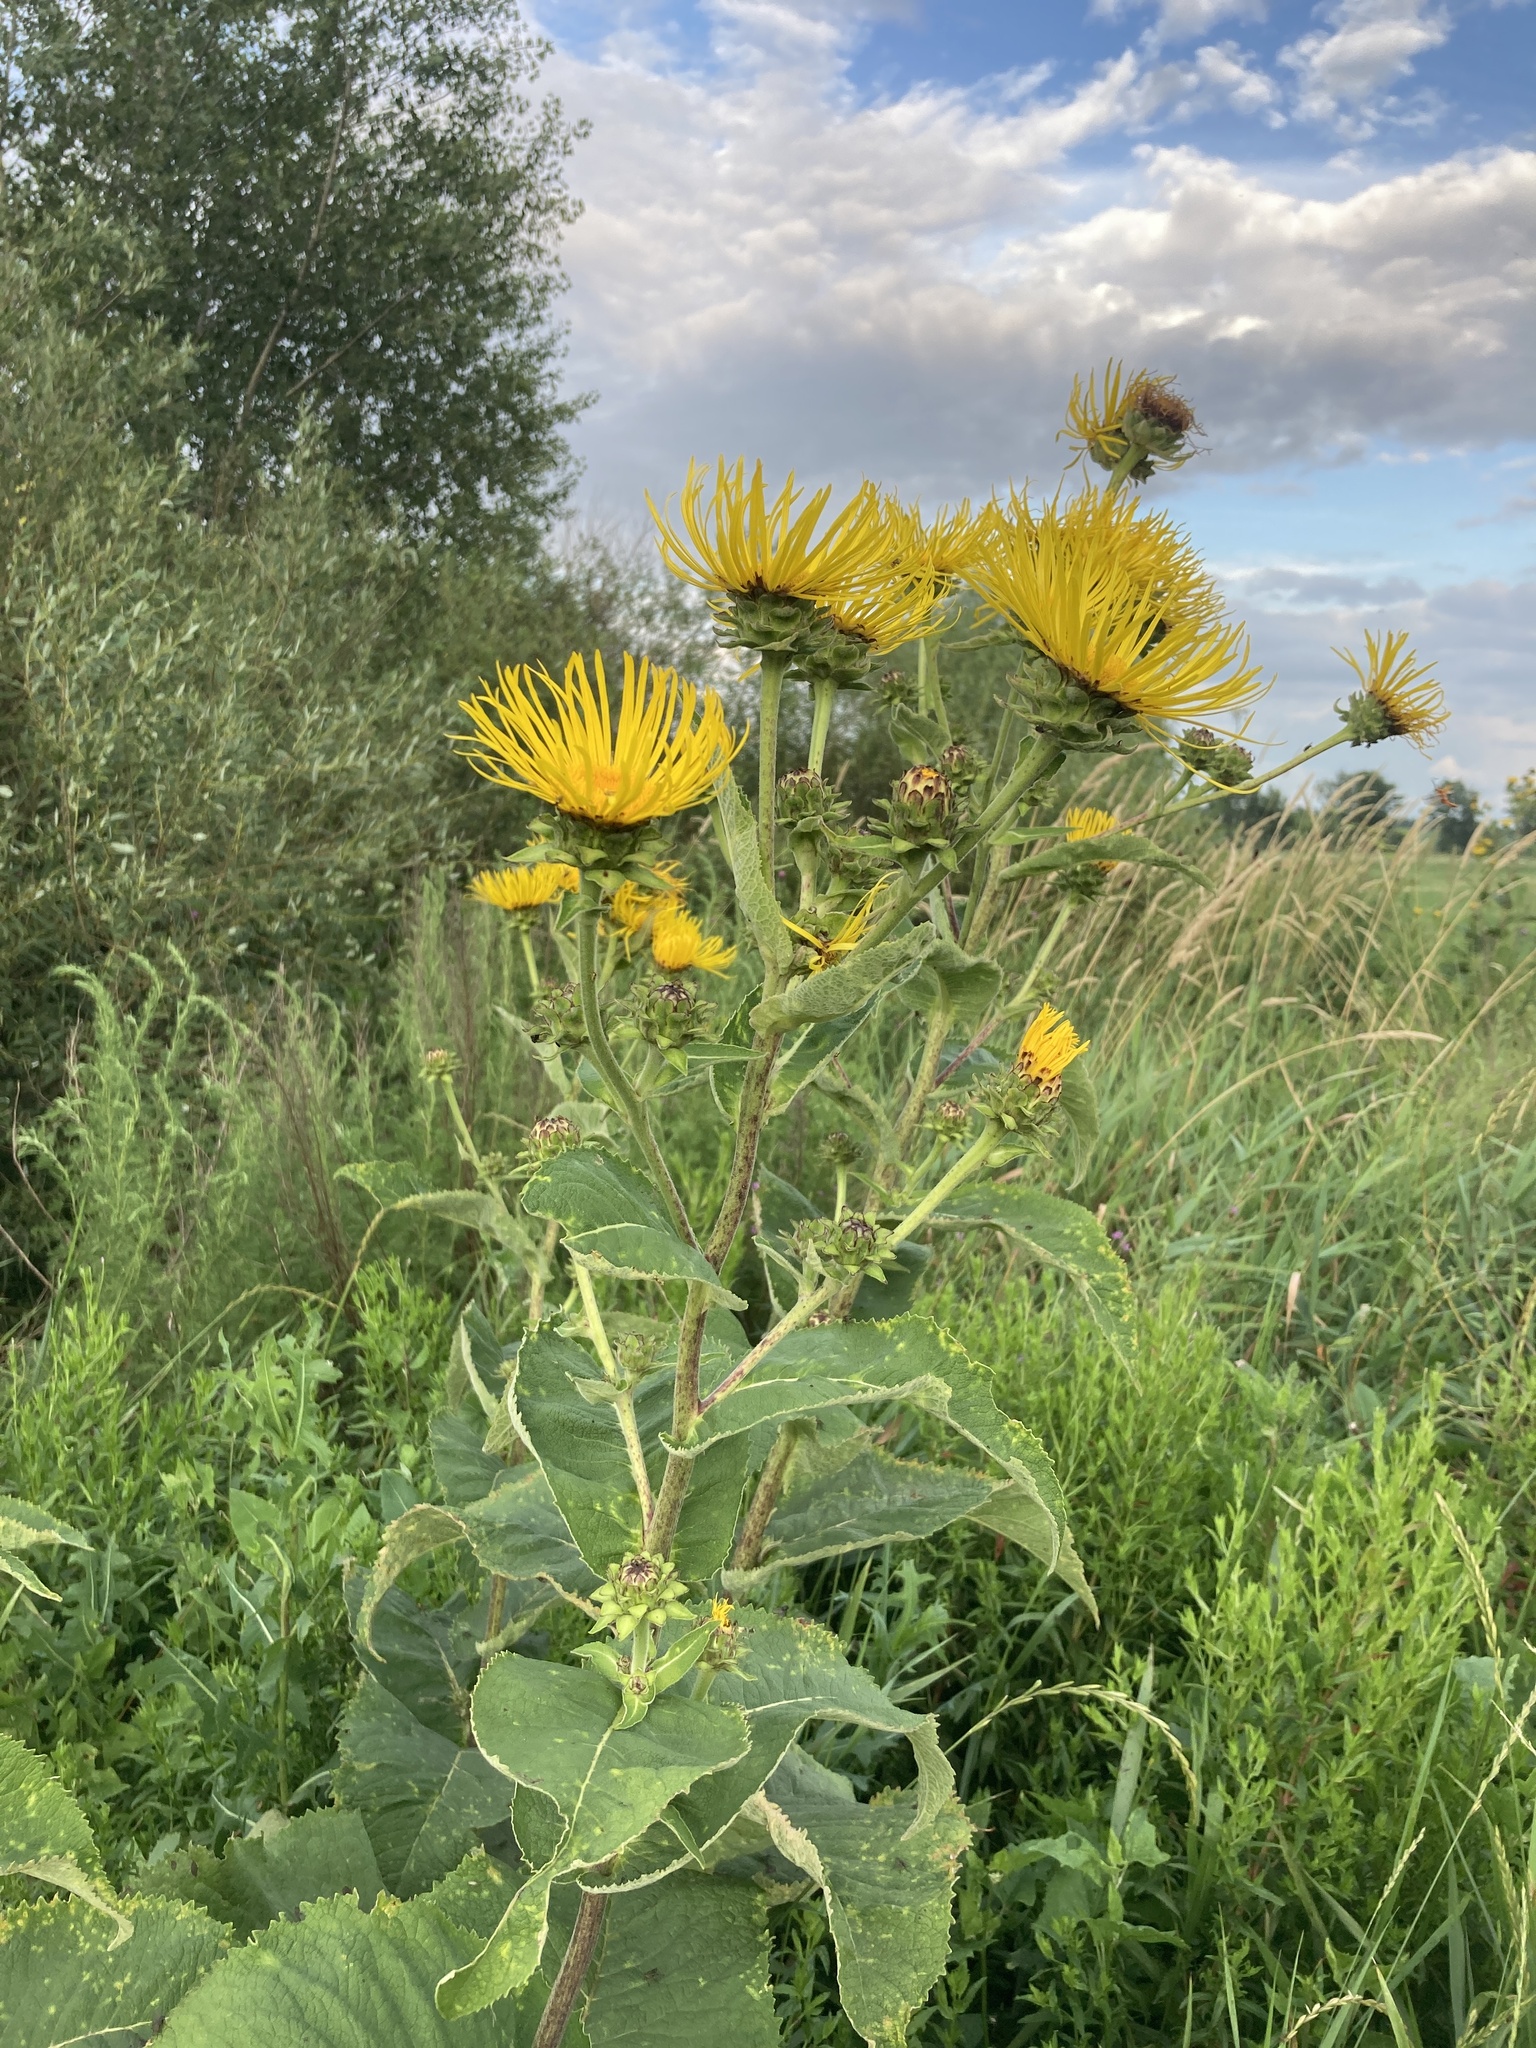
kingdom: Plantae
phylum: Tracheophyta
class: Magnoliopsida
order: Asterales
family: Asteraceae
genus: Inula
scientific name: Inula helenium
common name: Elecampane
